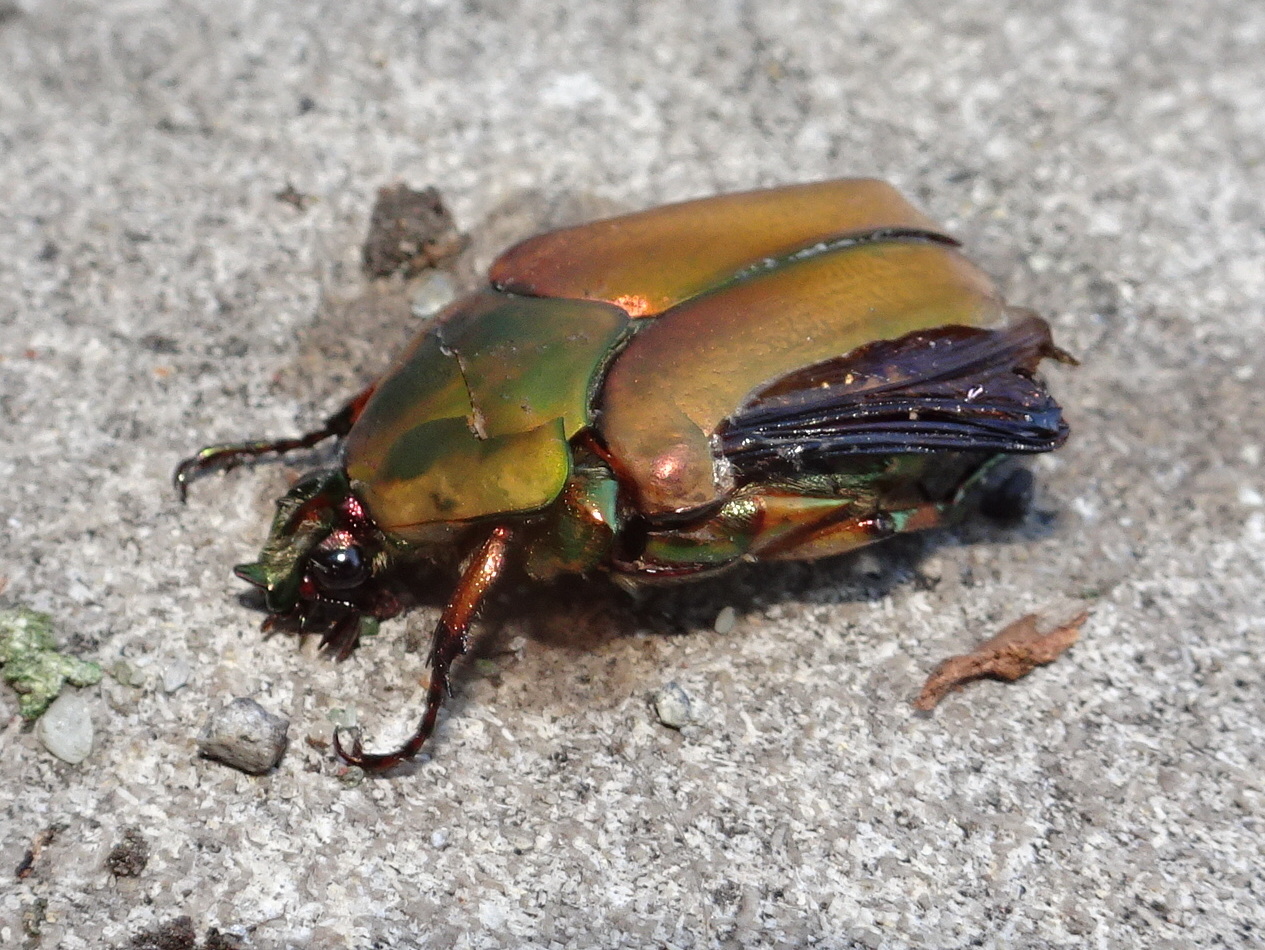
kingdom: Animalia
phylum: Arthropoda
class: Insecta
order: Coleoptera
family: Scarabaeidae
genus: Cotinis
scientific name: Cotinis nitida
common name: Common green june beetle
